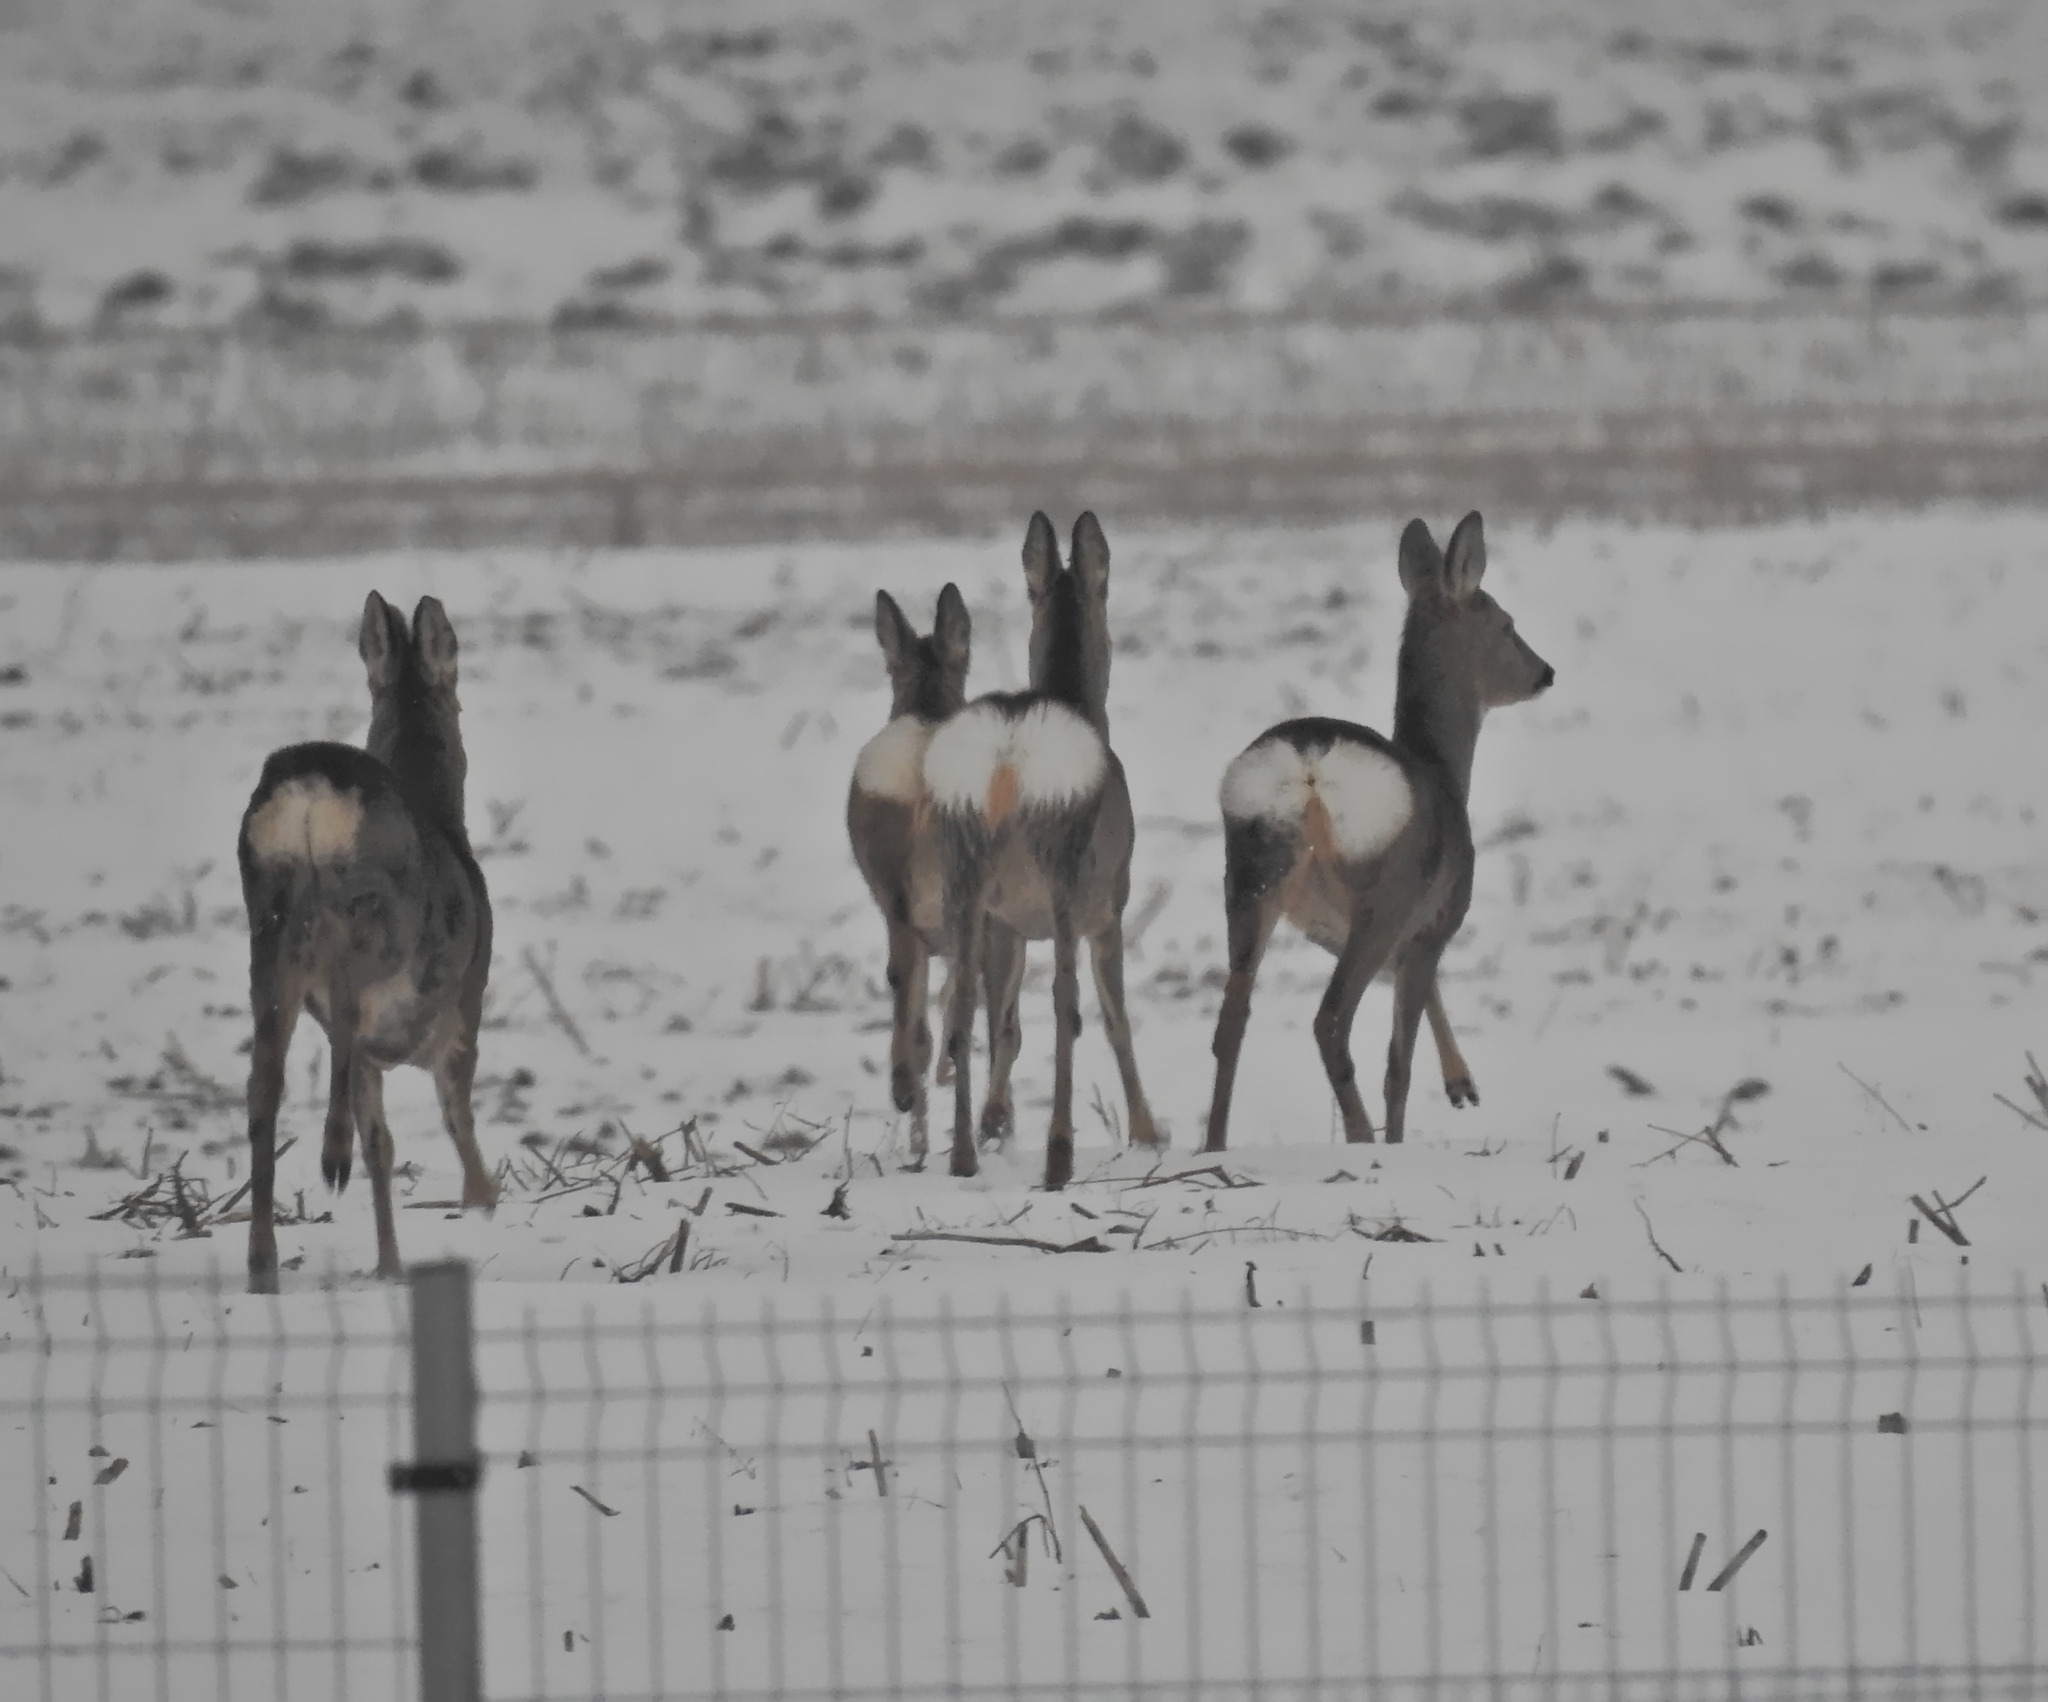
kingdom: Animalia
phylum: Chordata
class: Mammalia
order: Artiodactyla
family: Cervidae
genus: Capreolus
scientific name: Capreolus capreolus
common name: Western roe deer
